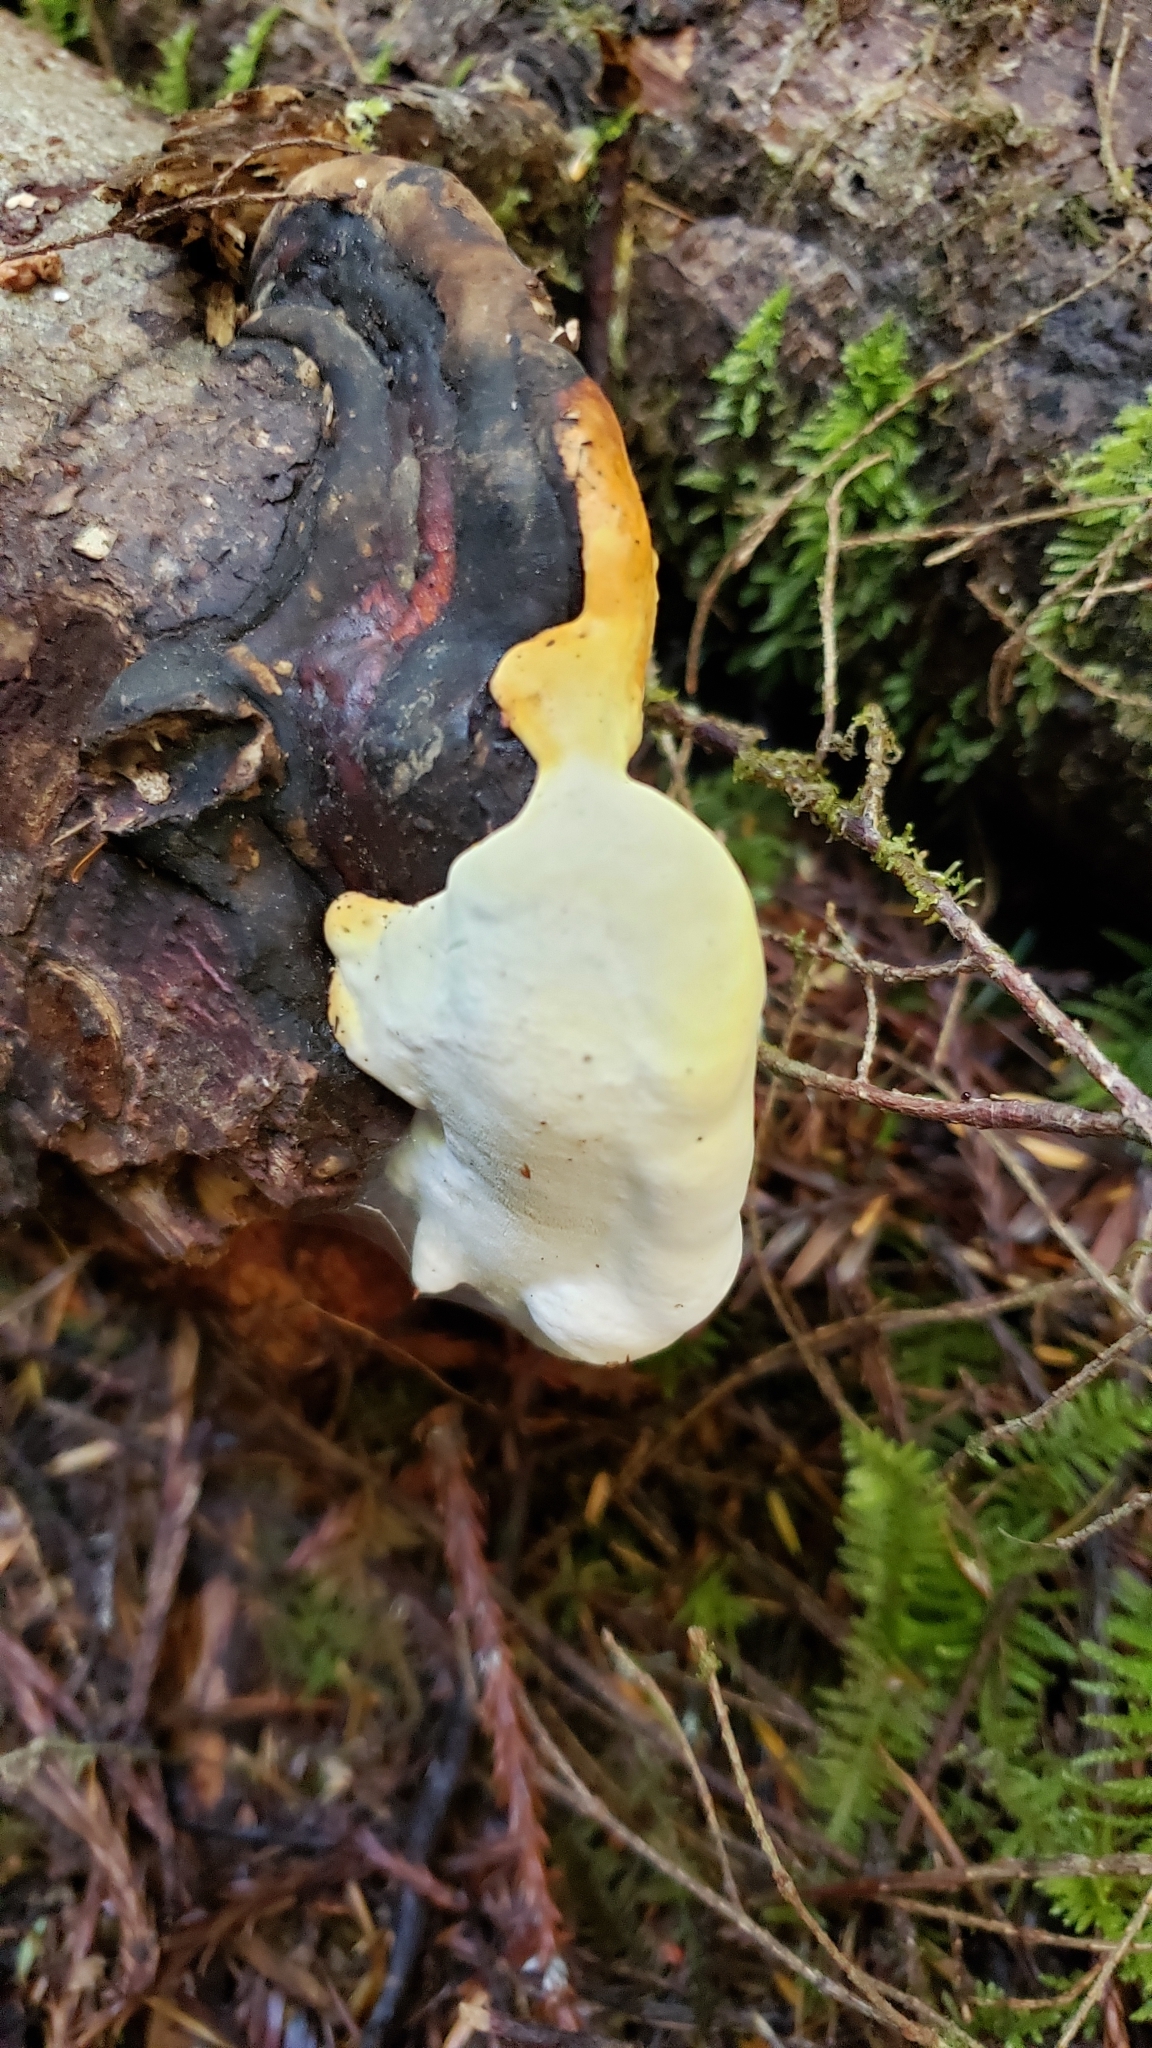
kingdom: Fungi
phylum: Basidiomycota
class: Agaricomycetes
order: Polyporales
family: Fomitopsidaceae
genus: Fomitopsis
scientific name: Fomitopsis ochracea
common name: American brown fomitopsis
